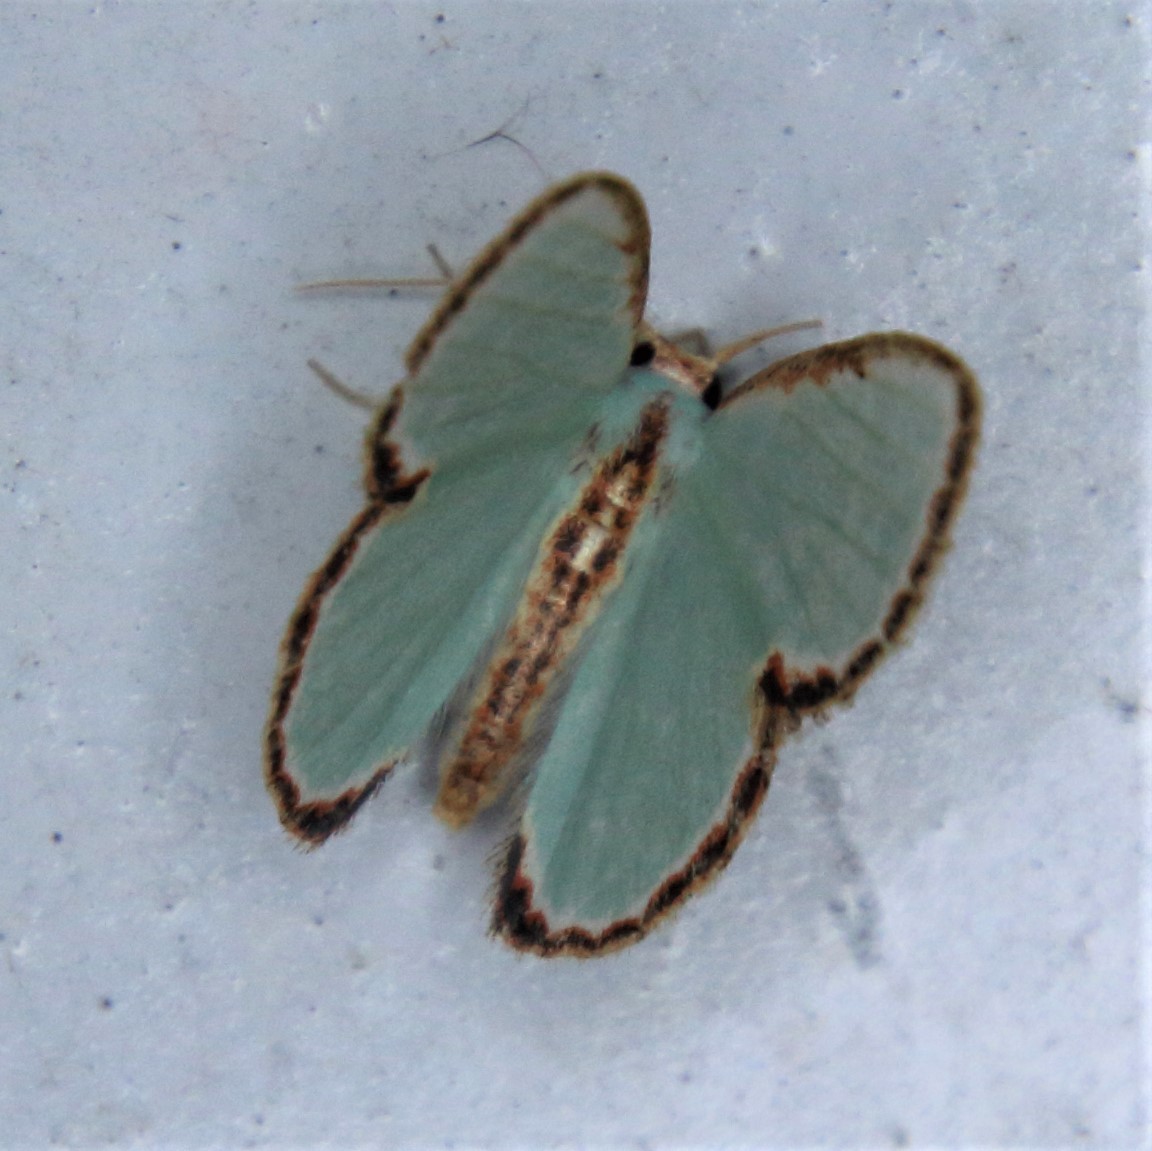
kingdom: Animalia
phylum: Arthropoda
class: Insecta
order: Lepidoptera
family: Geometridae
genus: Comostola
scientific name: Comostola turgescens
